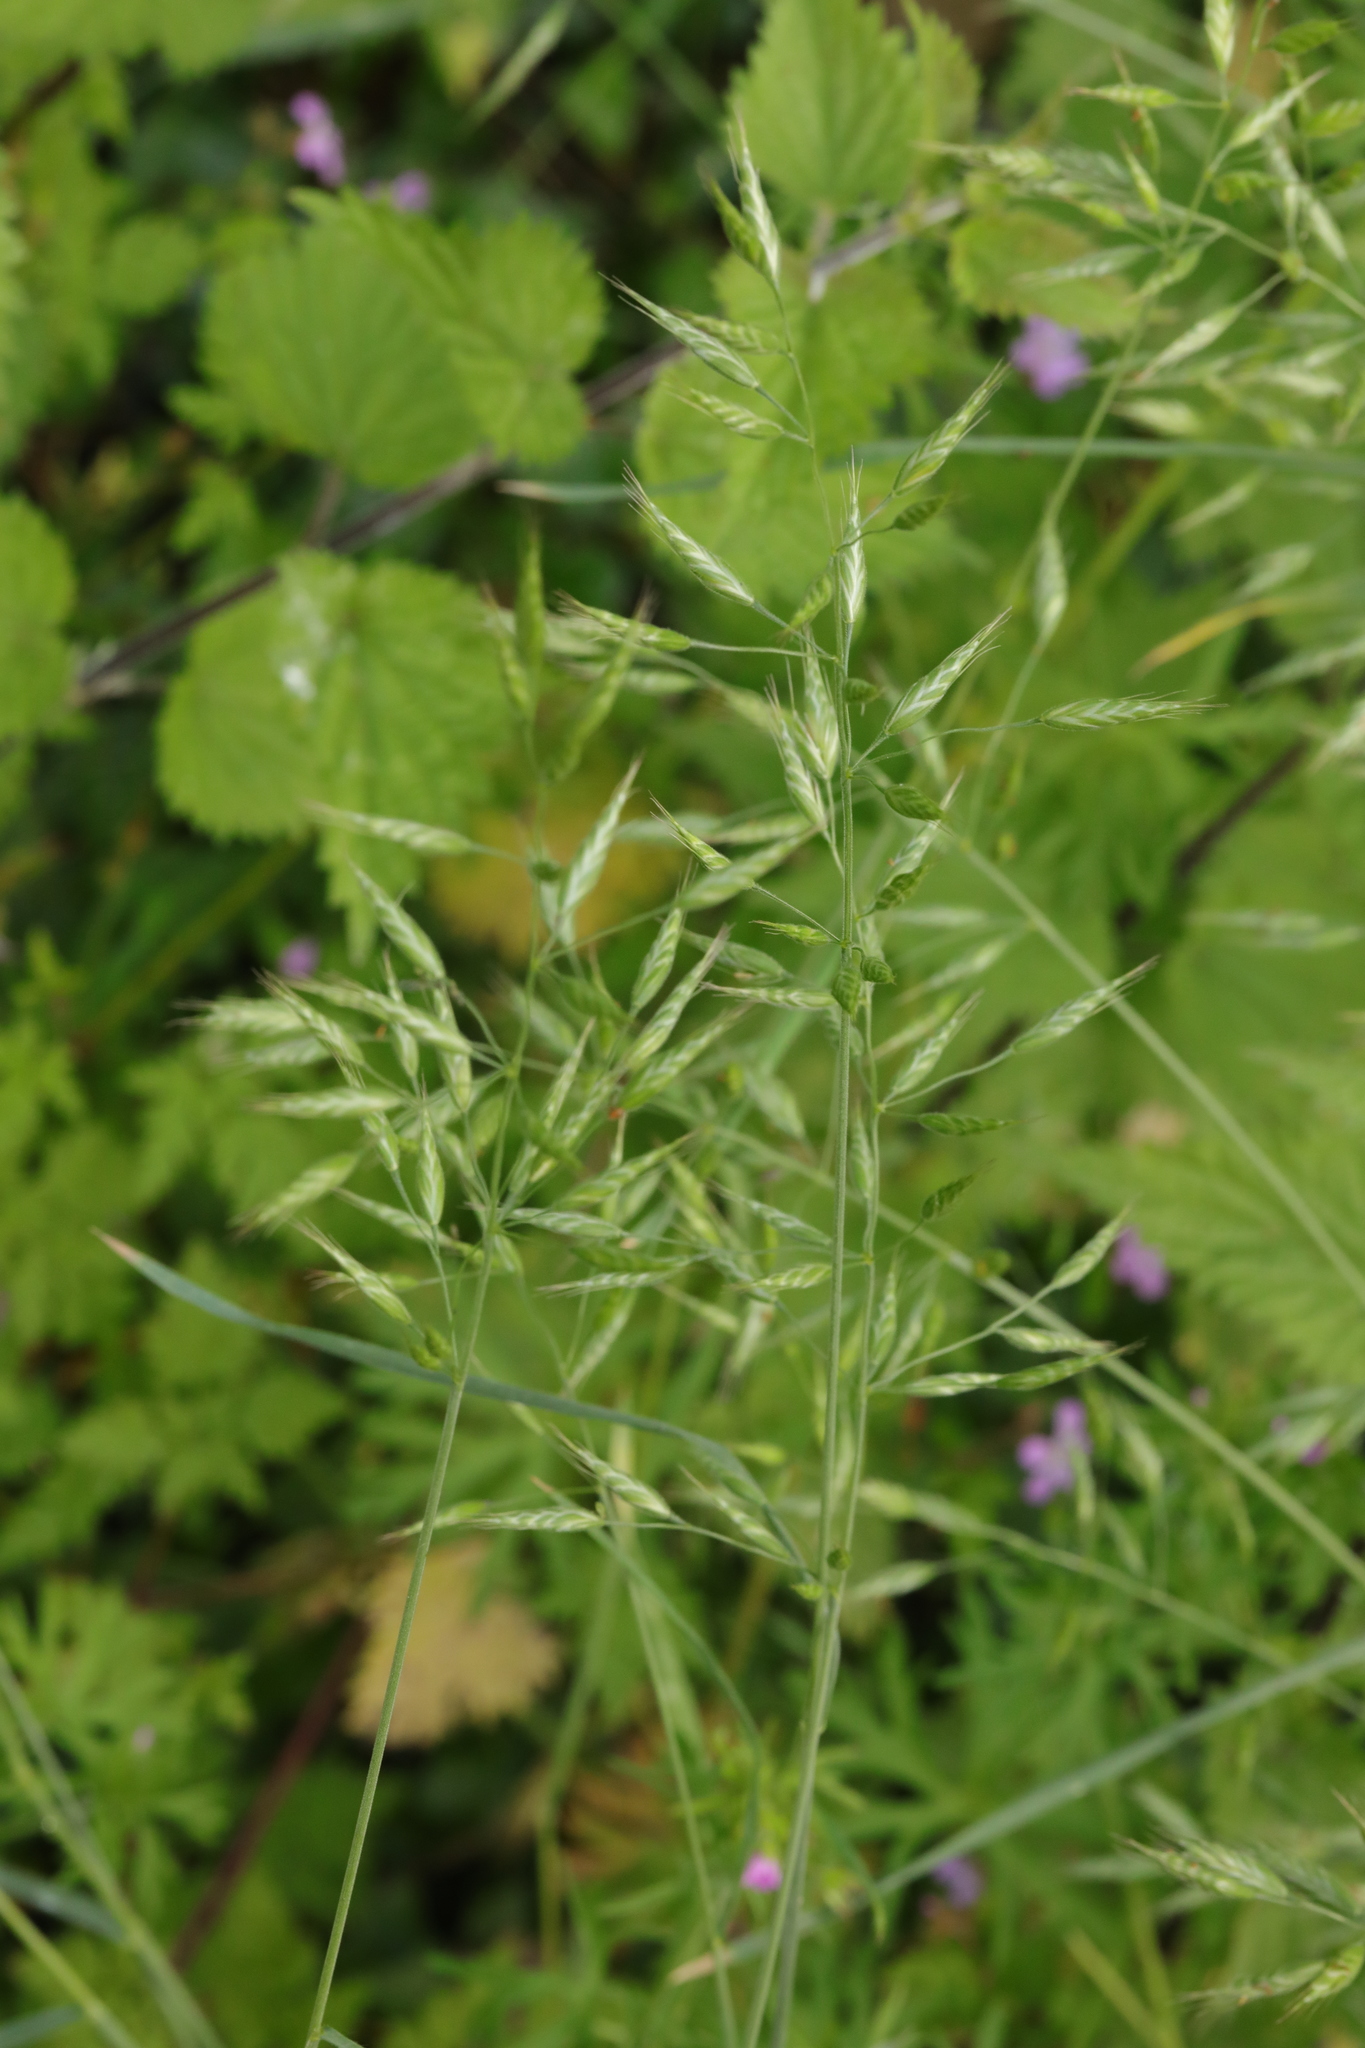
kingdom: Plantae
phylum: Tracheophyta
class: Liliopsida
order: Poales
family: Poaceae
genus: Bromus
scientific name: Bromus hordeaceus
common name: Soft brome
